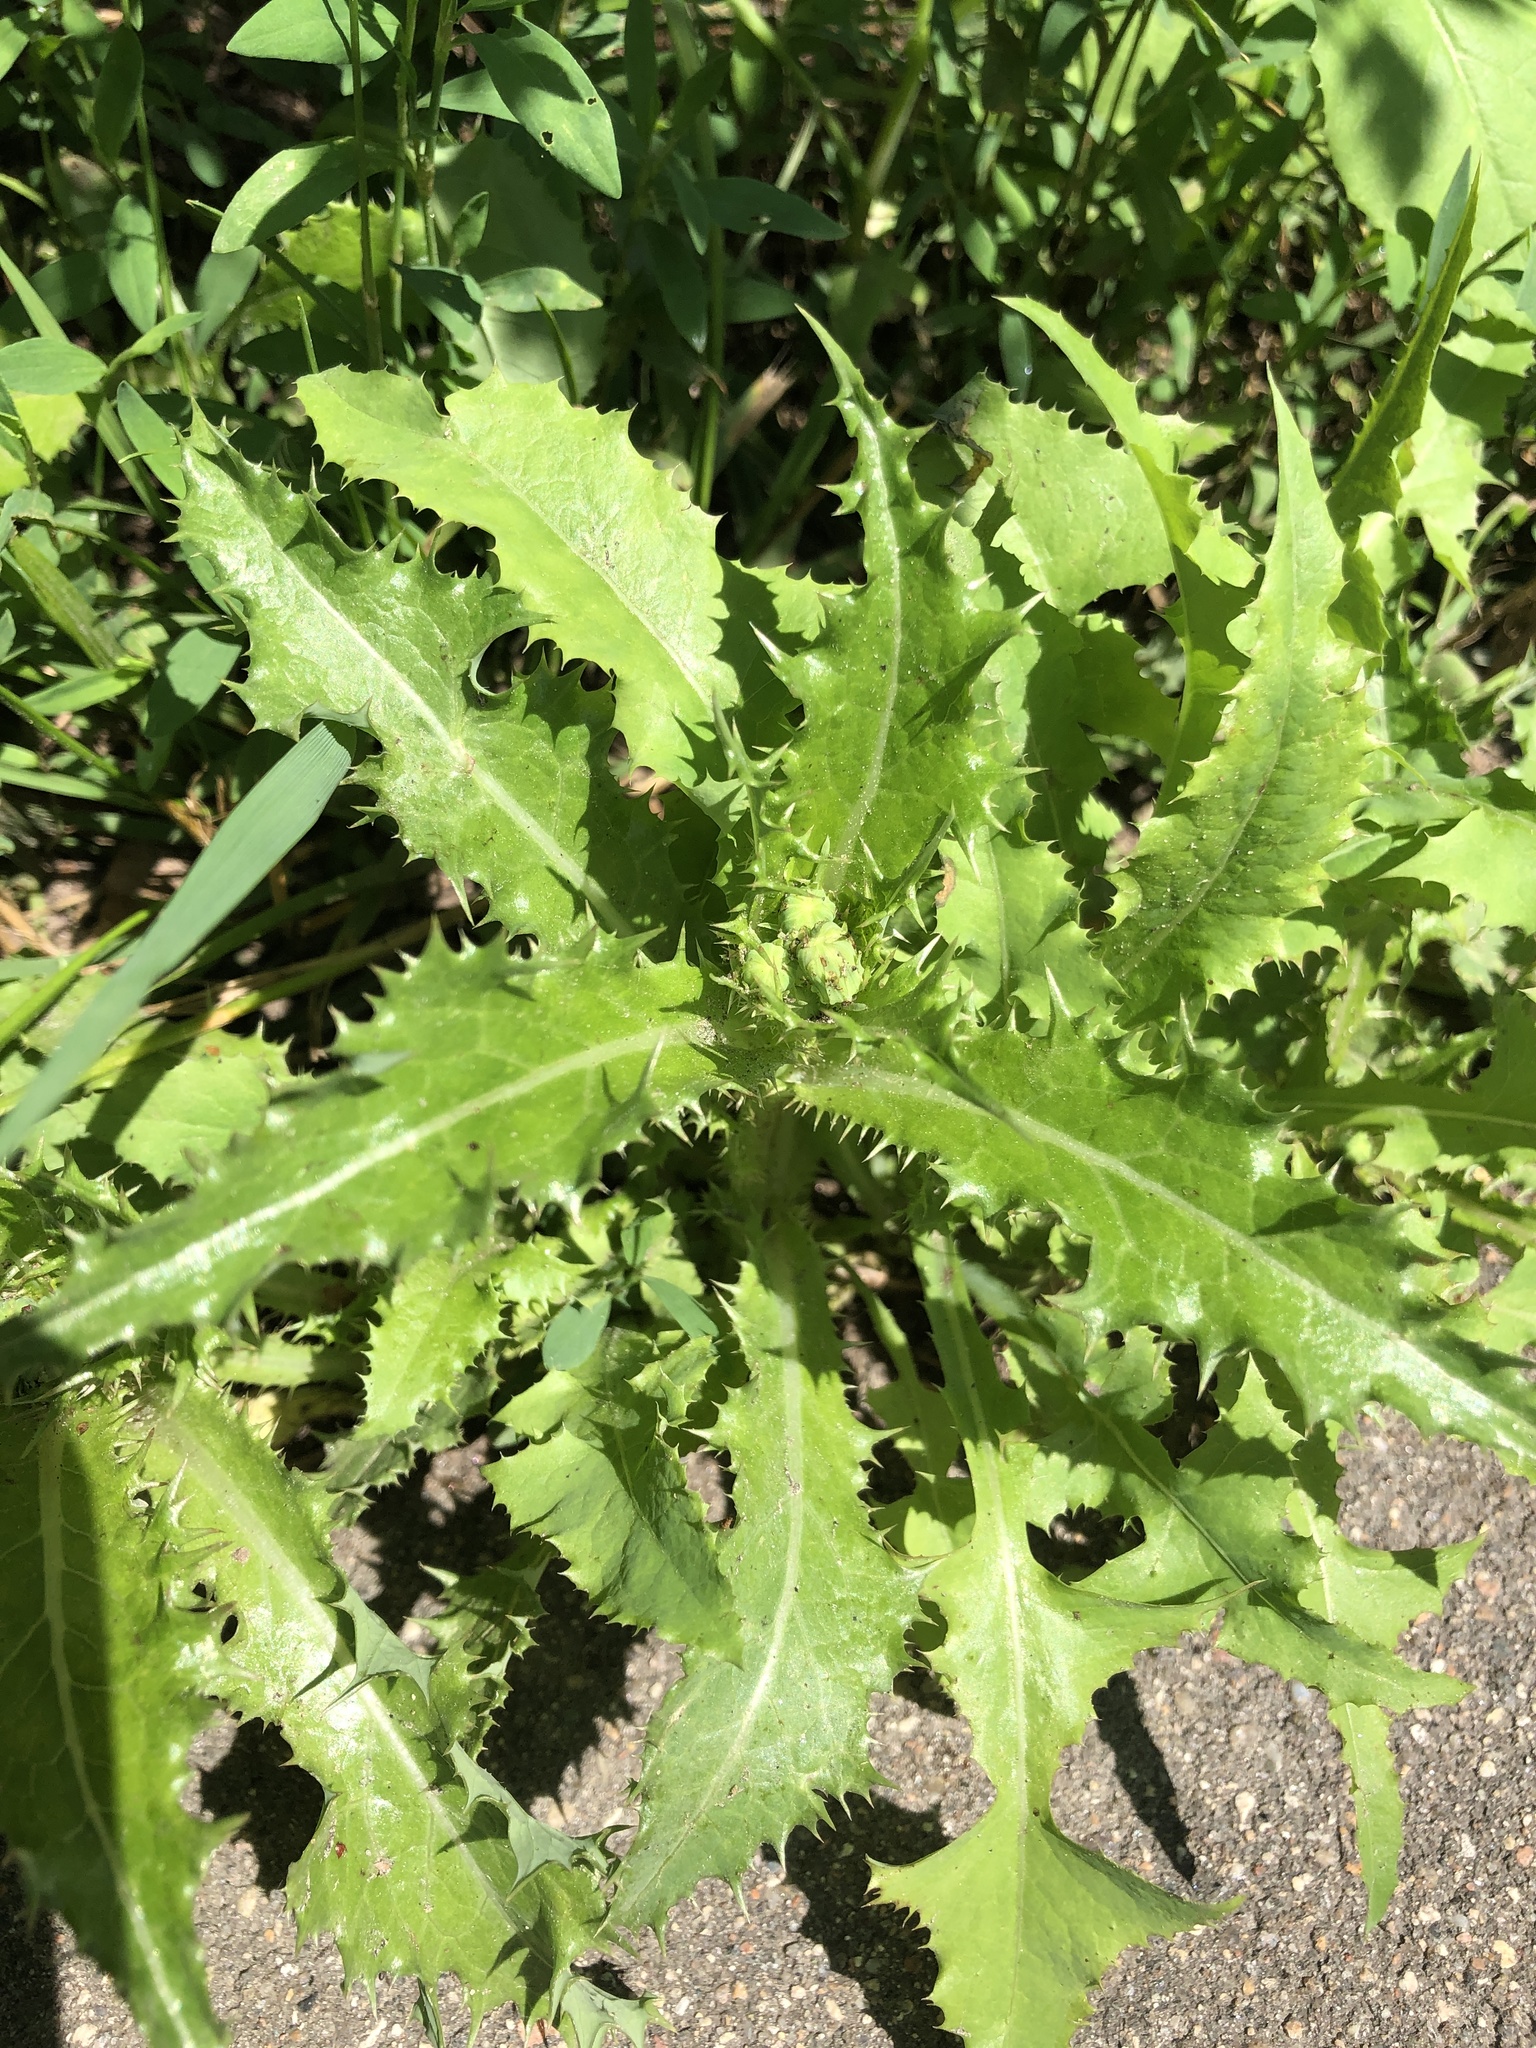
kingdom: Plantae
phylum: Tracheophyta
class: Magnoliopsida
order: Asterales
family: Asteraceae
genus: Sonchus
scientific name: Sonchus asper
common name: Prickly sow-thistle
